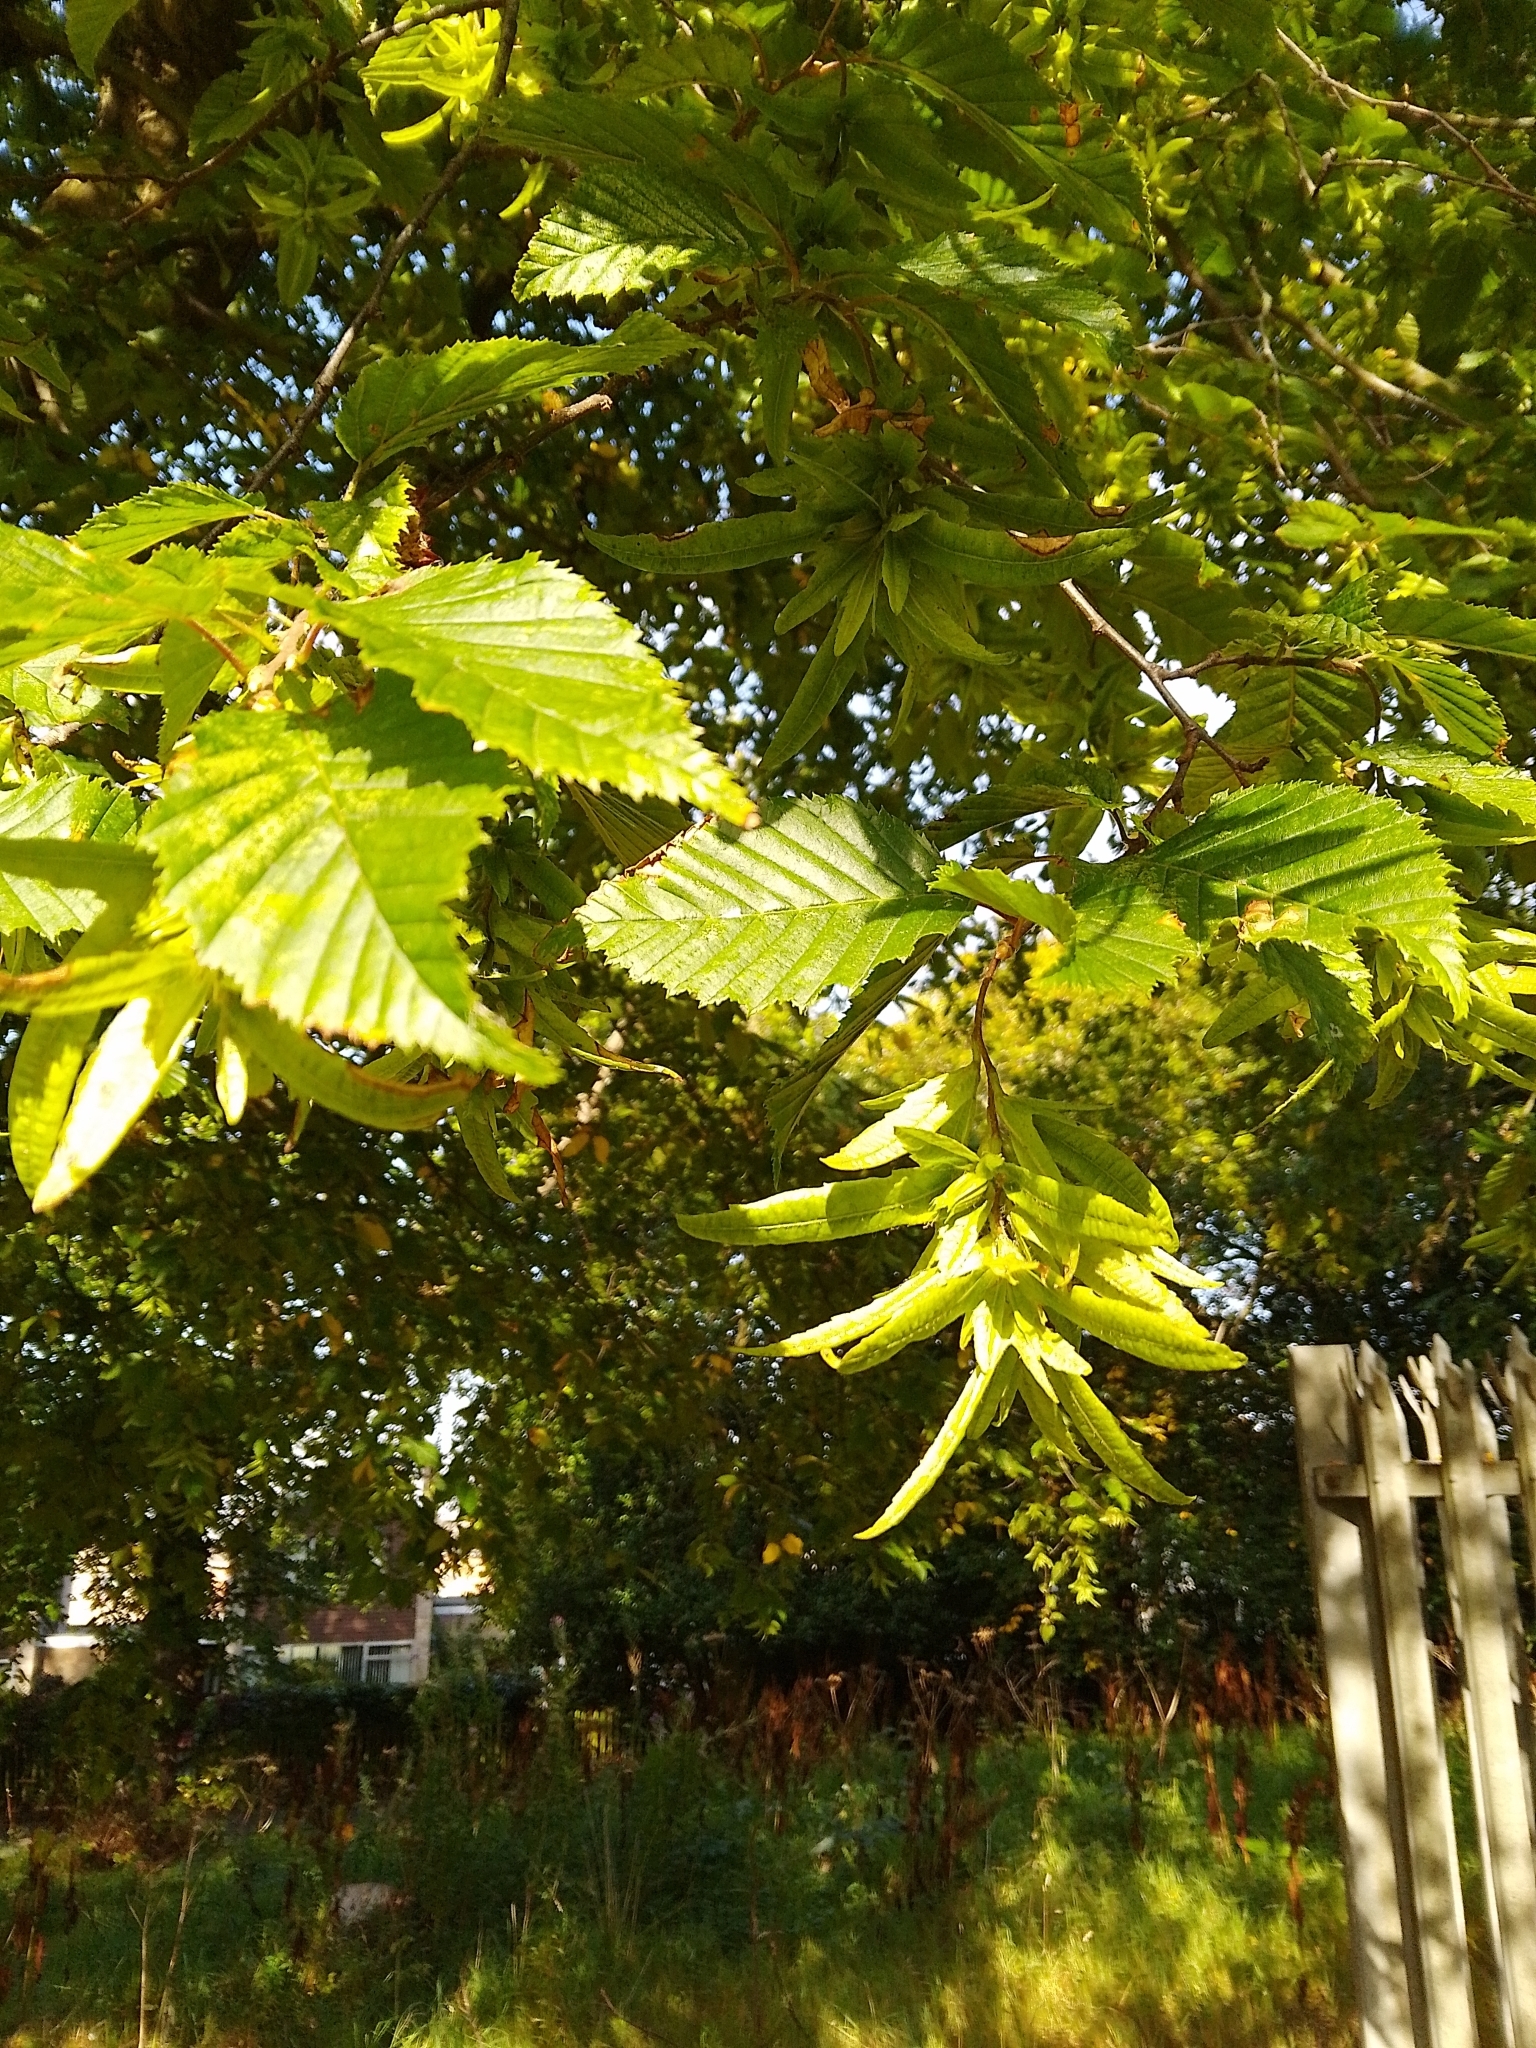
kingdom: Plantae
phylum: Tracheophyta
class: Magnoliopsida
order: Fagales
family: Betulaceae
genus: Carpinus
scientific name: Carpinus betulus
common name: Hornbeam
